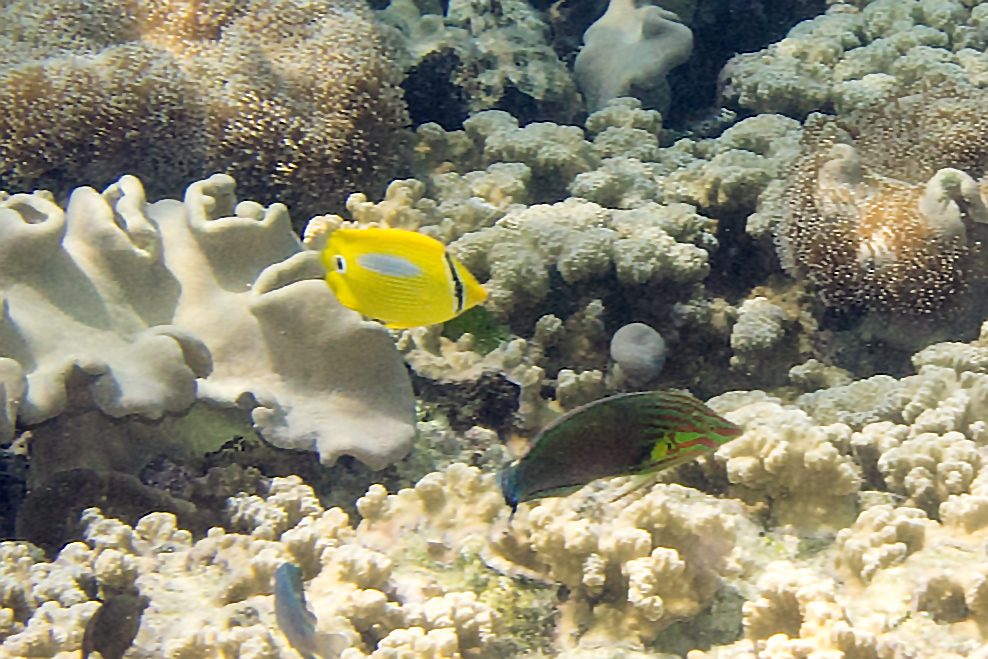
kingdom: Animalia
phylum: Chordata
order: Perciformes
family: Labridae
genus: Halichoeres
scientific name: Halichoeres melanurus
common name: Hoeven's wrasse
